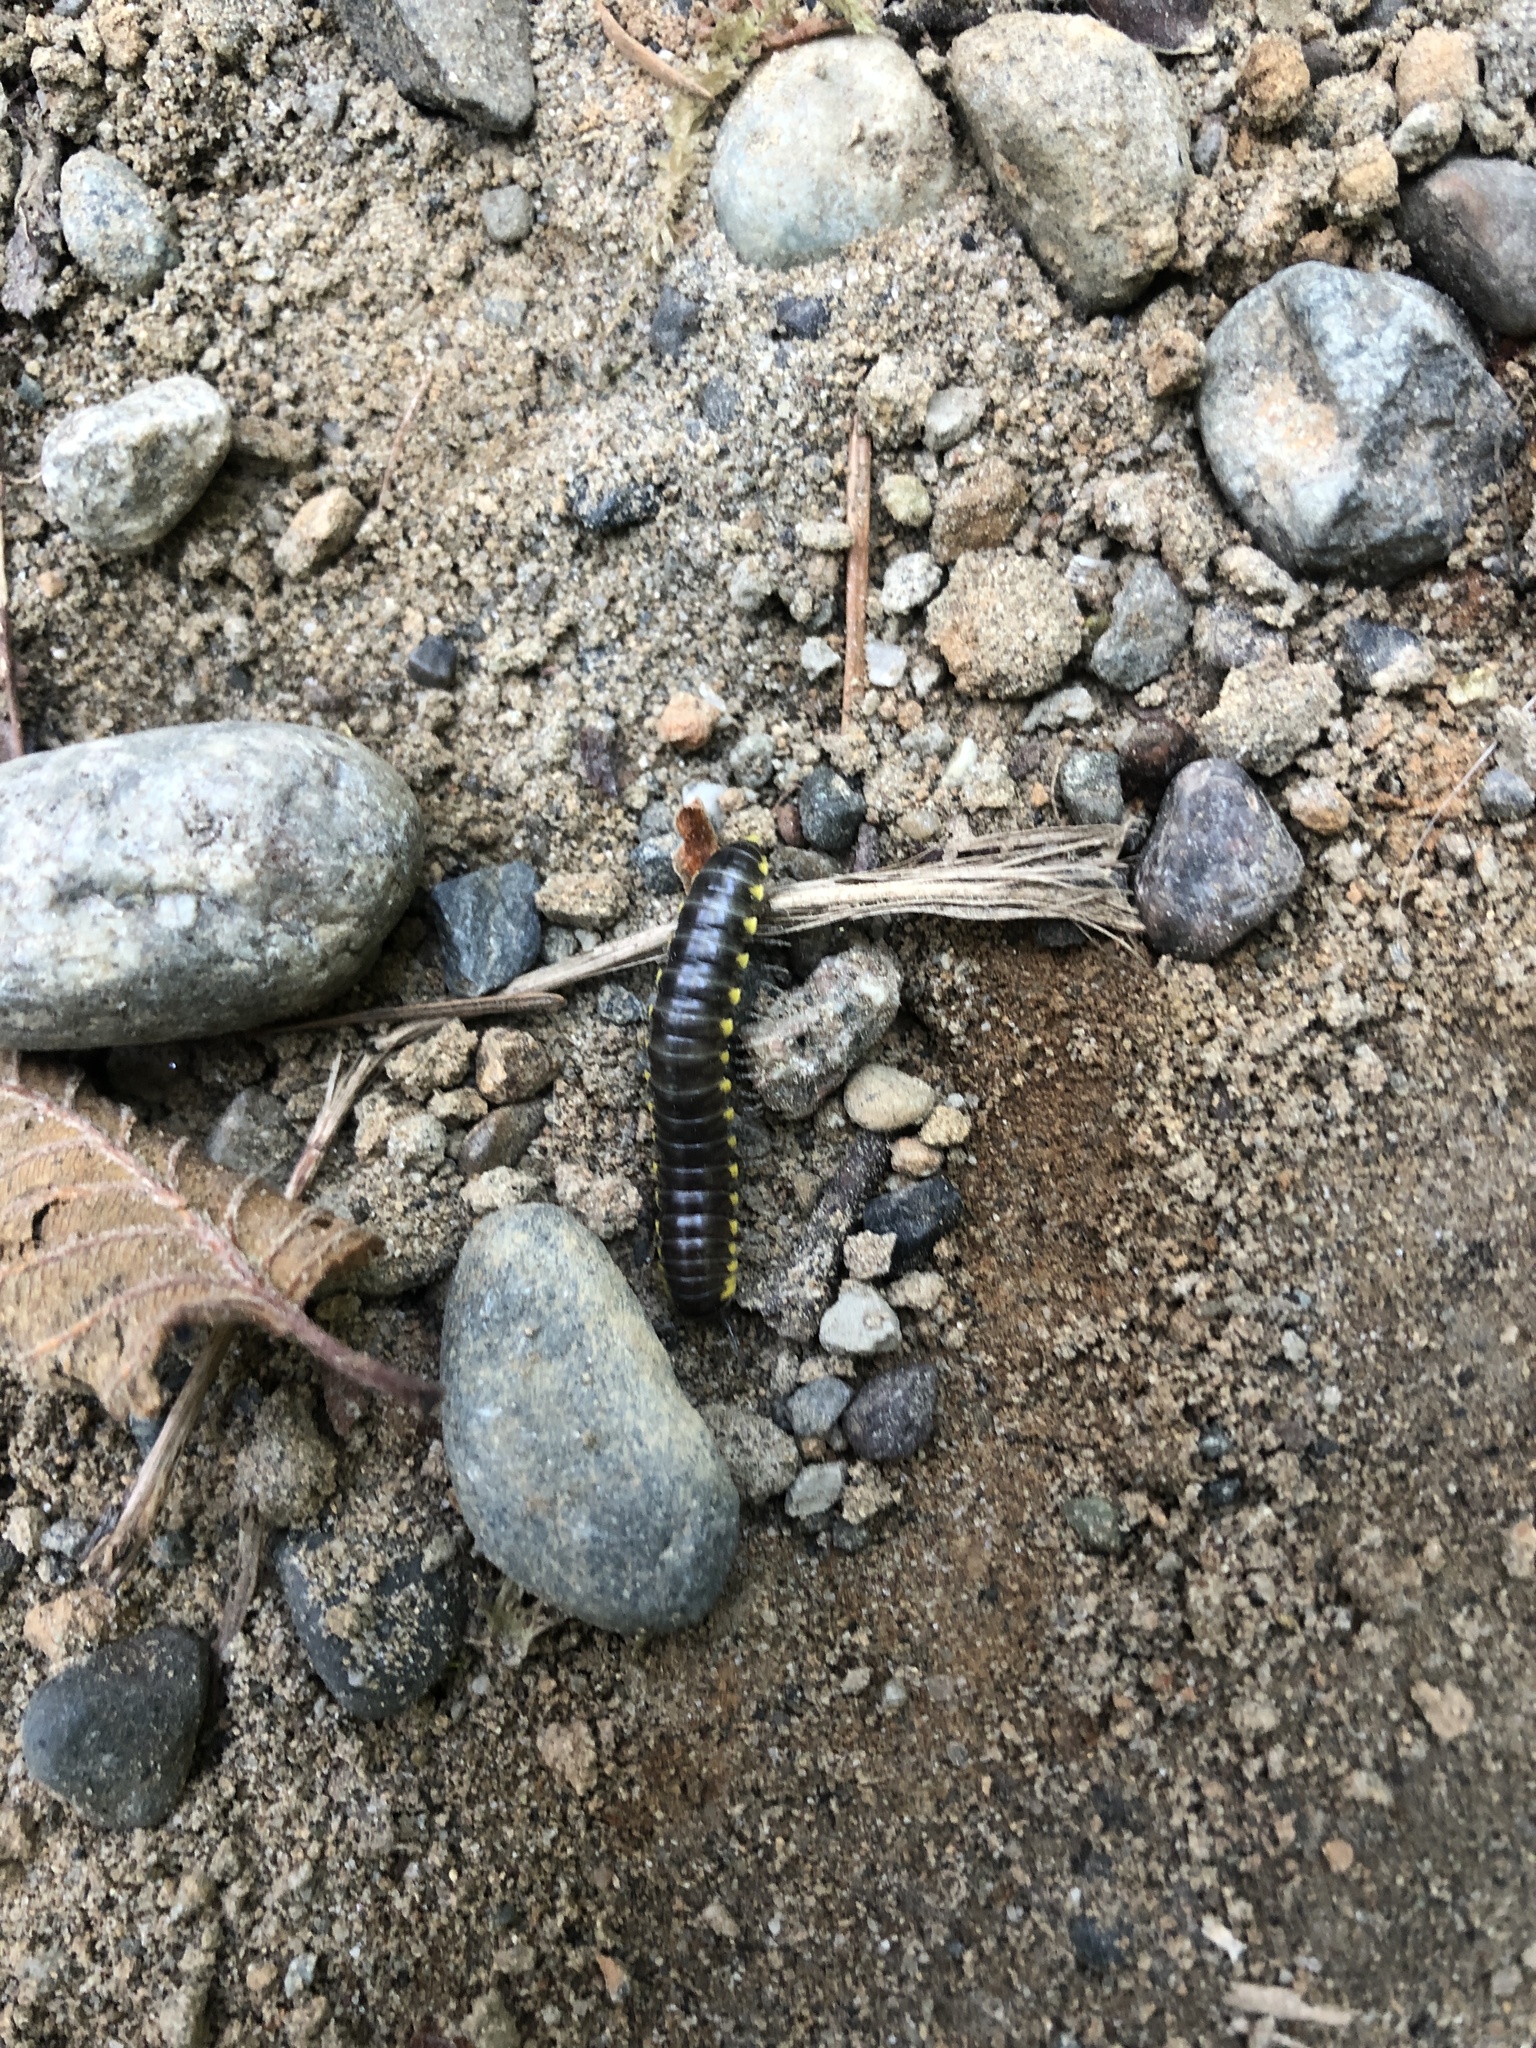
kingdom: Animalia
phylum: Arthropoda
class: Diplopoda
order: Polydesmida
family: Xystodesmidae
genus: Harpaphe
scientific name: Harpaphe haydeniana
